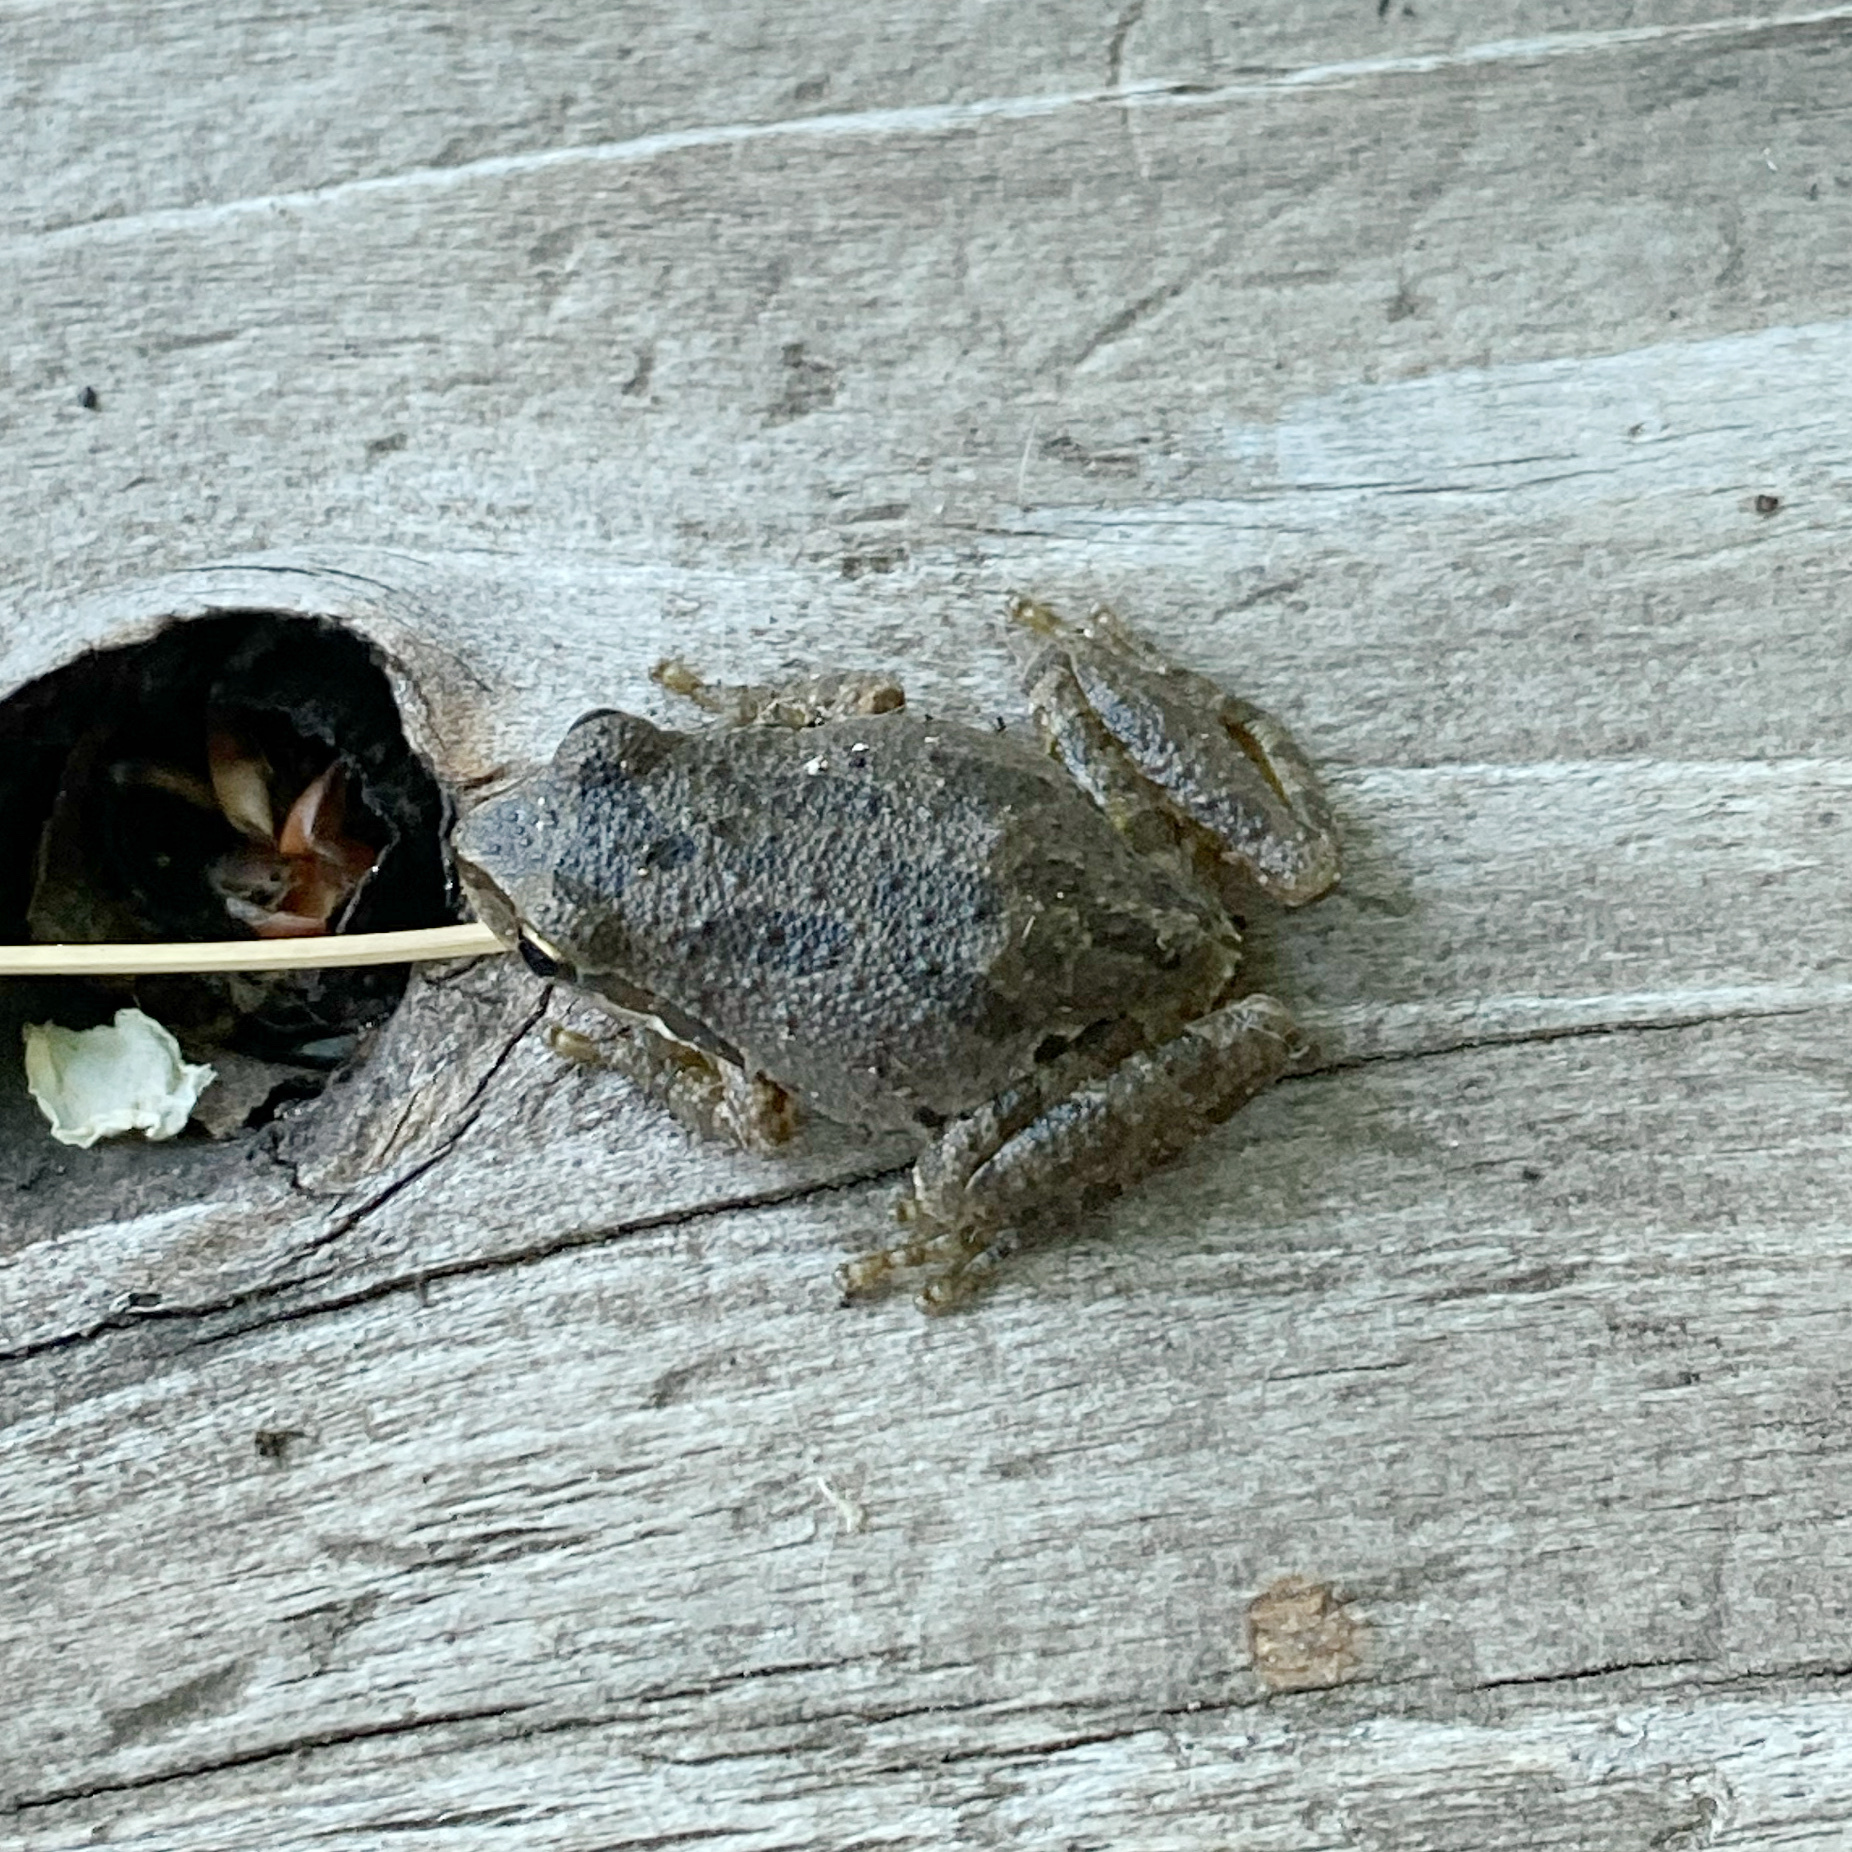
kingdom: Animalia
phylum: Chordata
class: Amphibia
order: Anura
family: Hylidae
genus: Pseudacris
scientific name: Pseudacris regilla
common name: Pacific chorus frog
